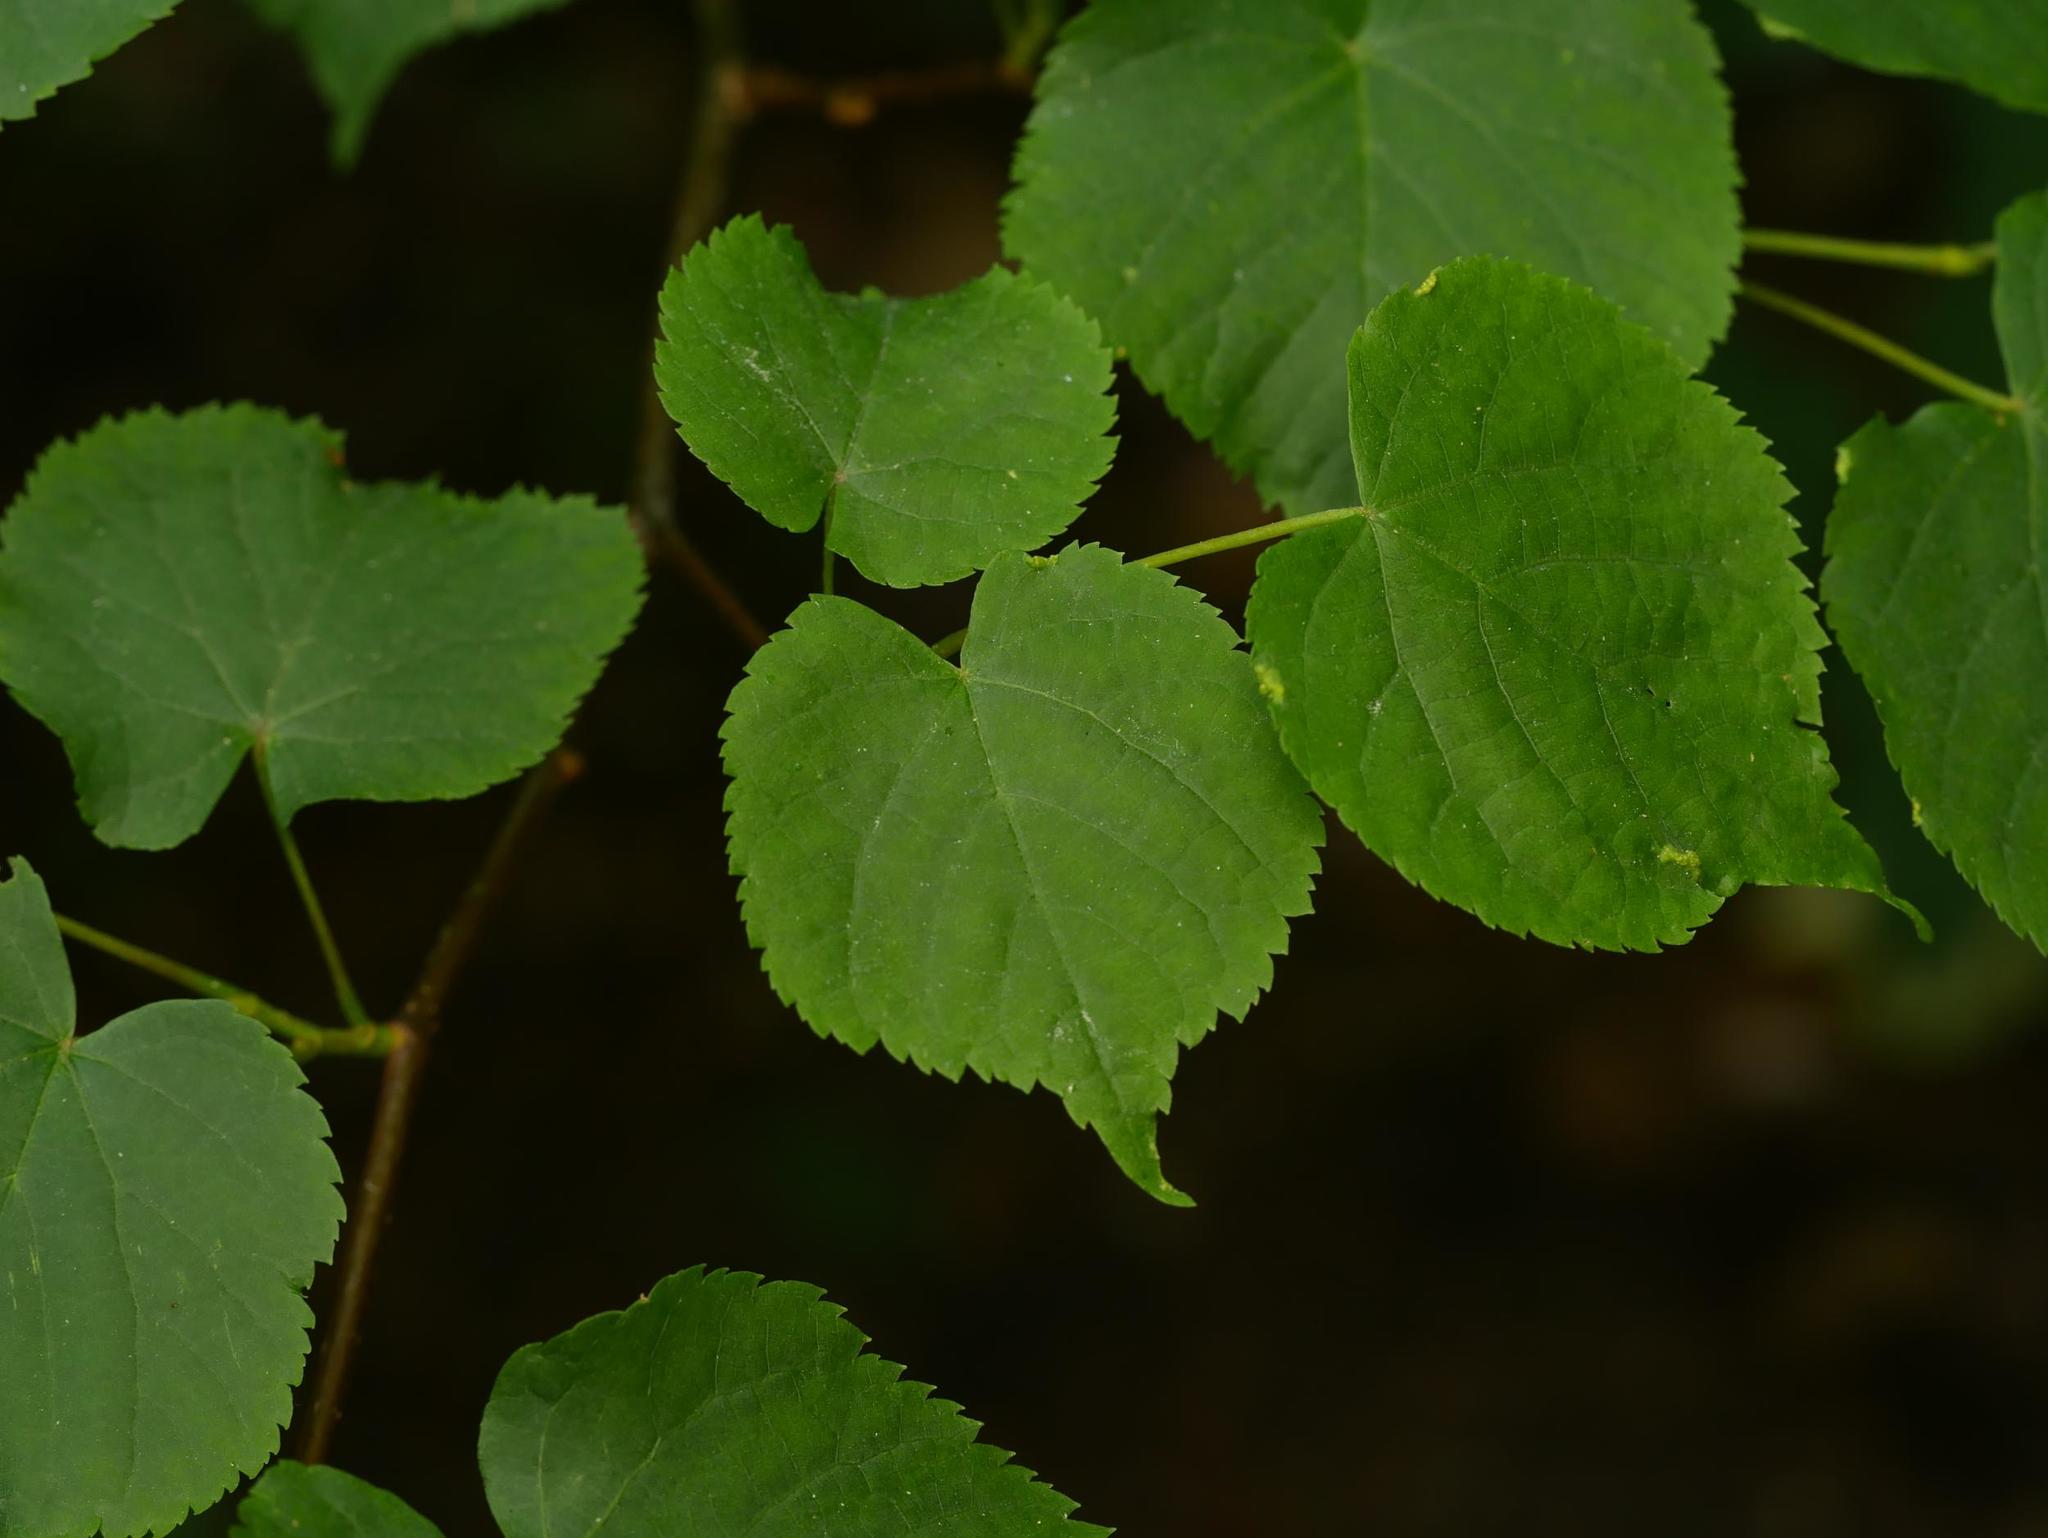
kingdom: Plantae
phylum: Tracheophyta
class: Magnoliopsida
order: Malvales
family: Malvaceae
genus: Tilia
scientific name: Tilia cordata
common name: Small-leaved lime
